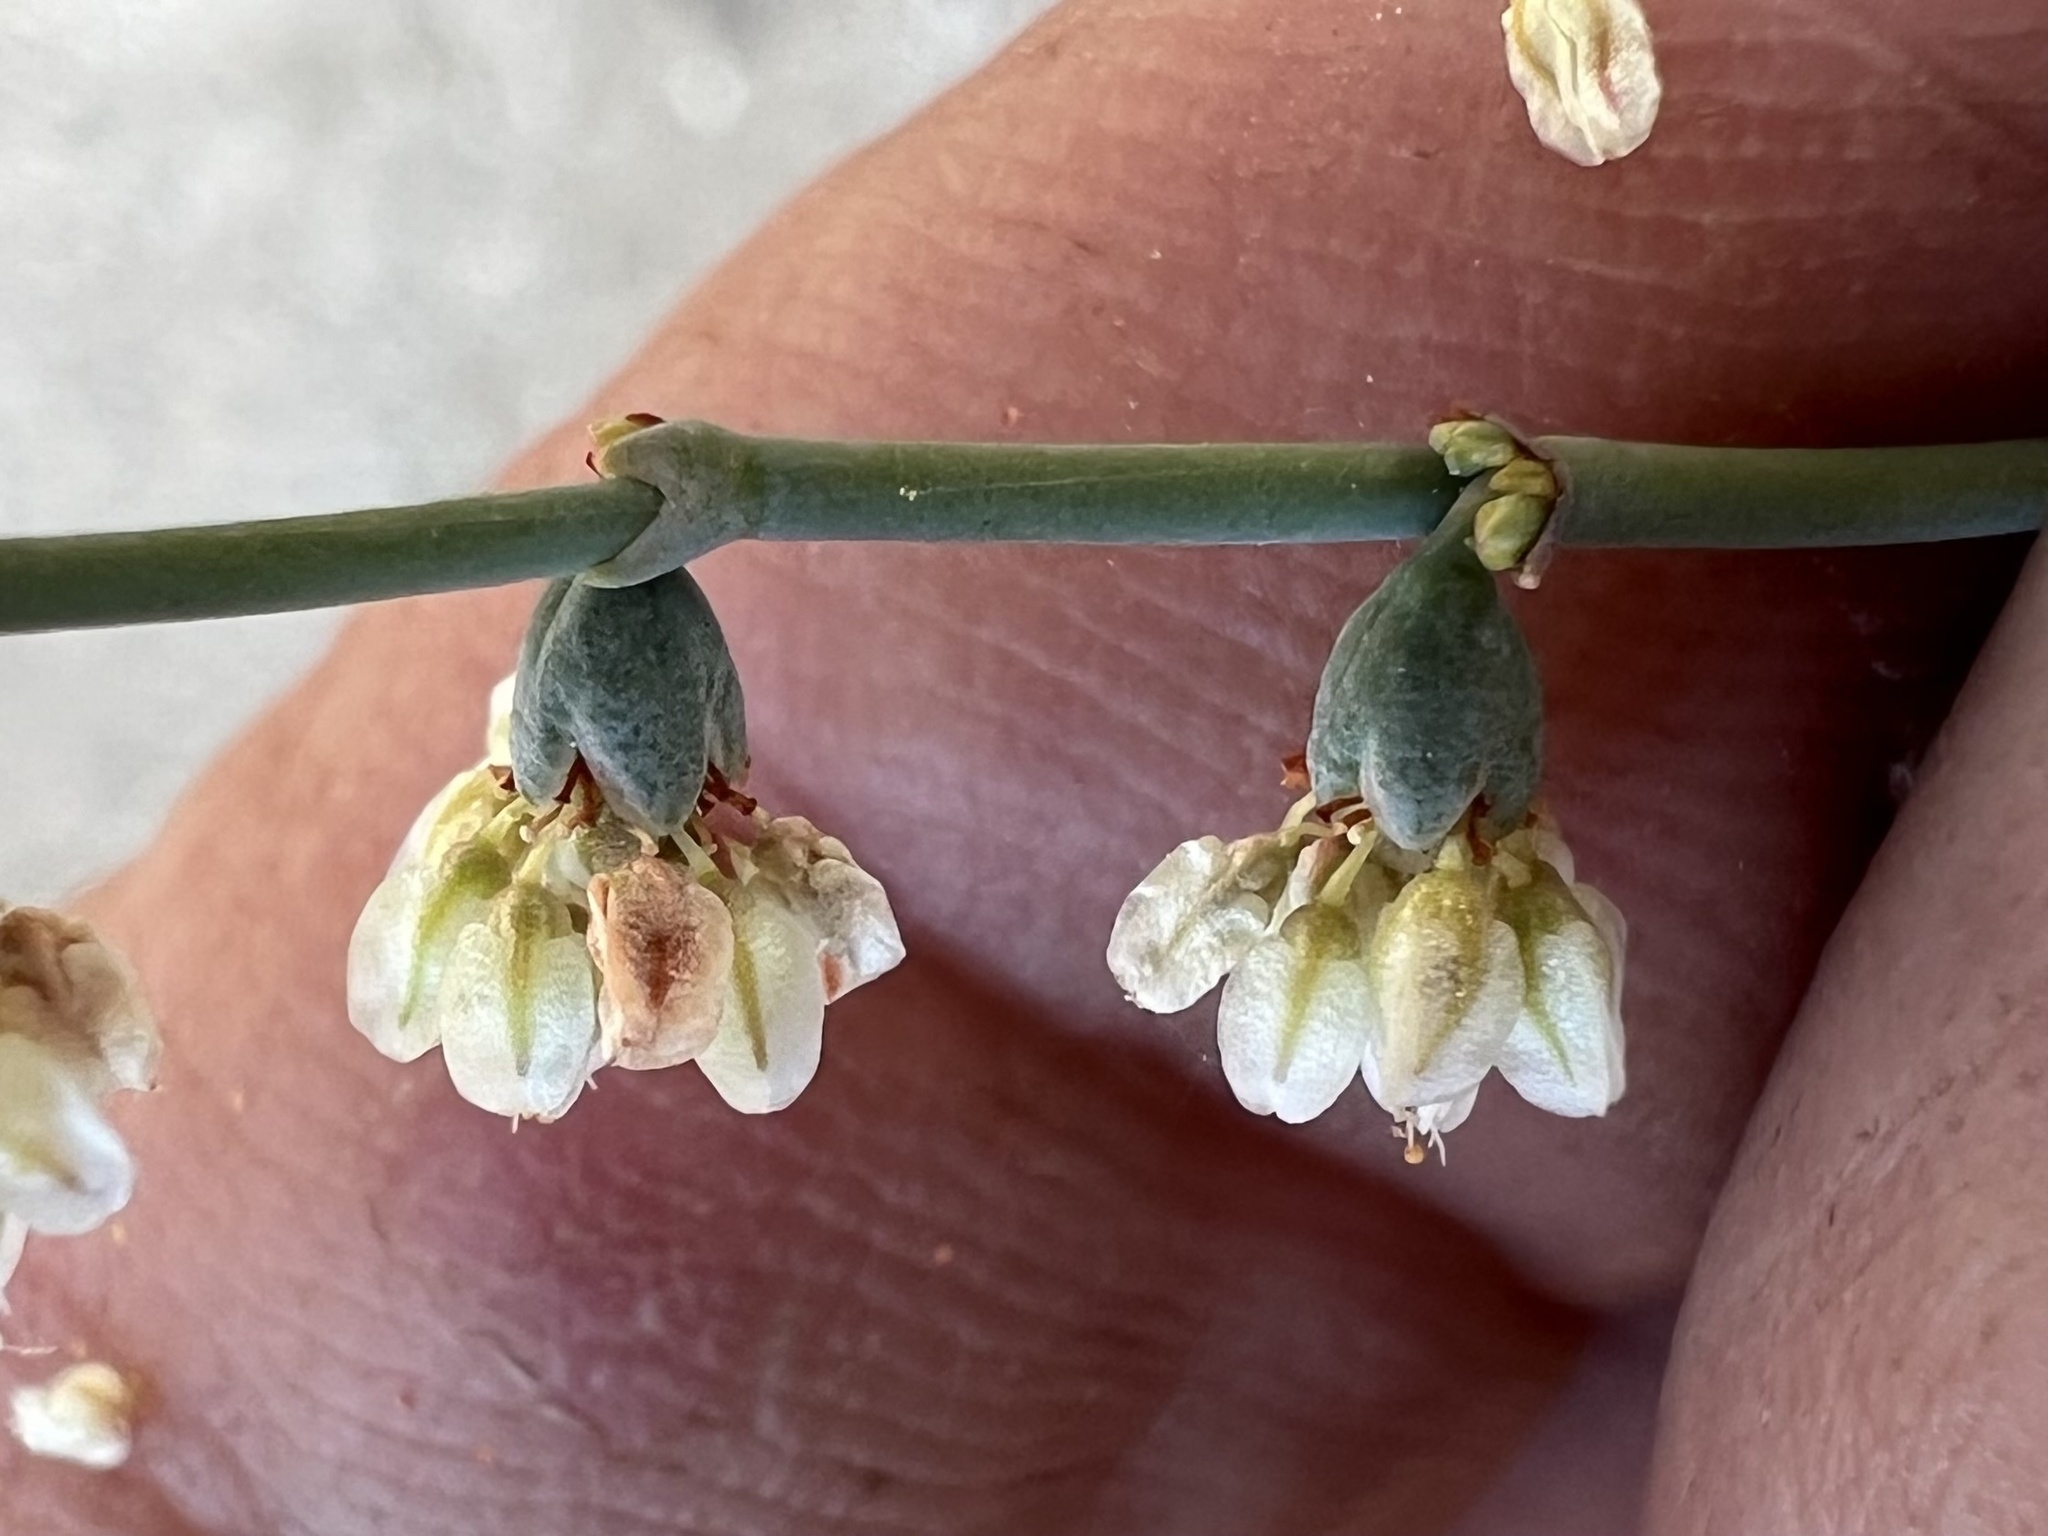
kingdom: Plantae
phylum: Tracheophyta
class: Magnoliopsida
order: Caryophyllales
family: Polygonaceae
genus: Eriogonum
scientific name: Eriogonum deflexum
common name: Skeleton-weed
